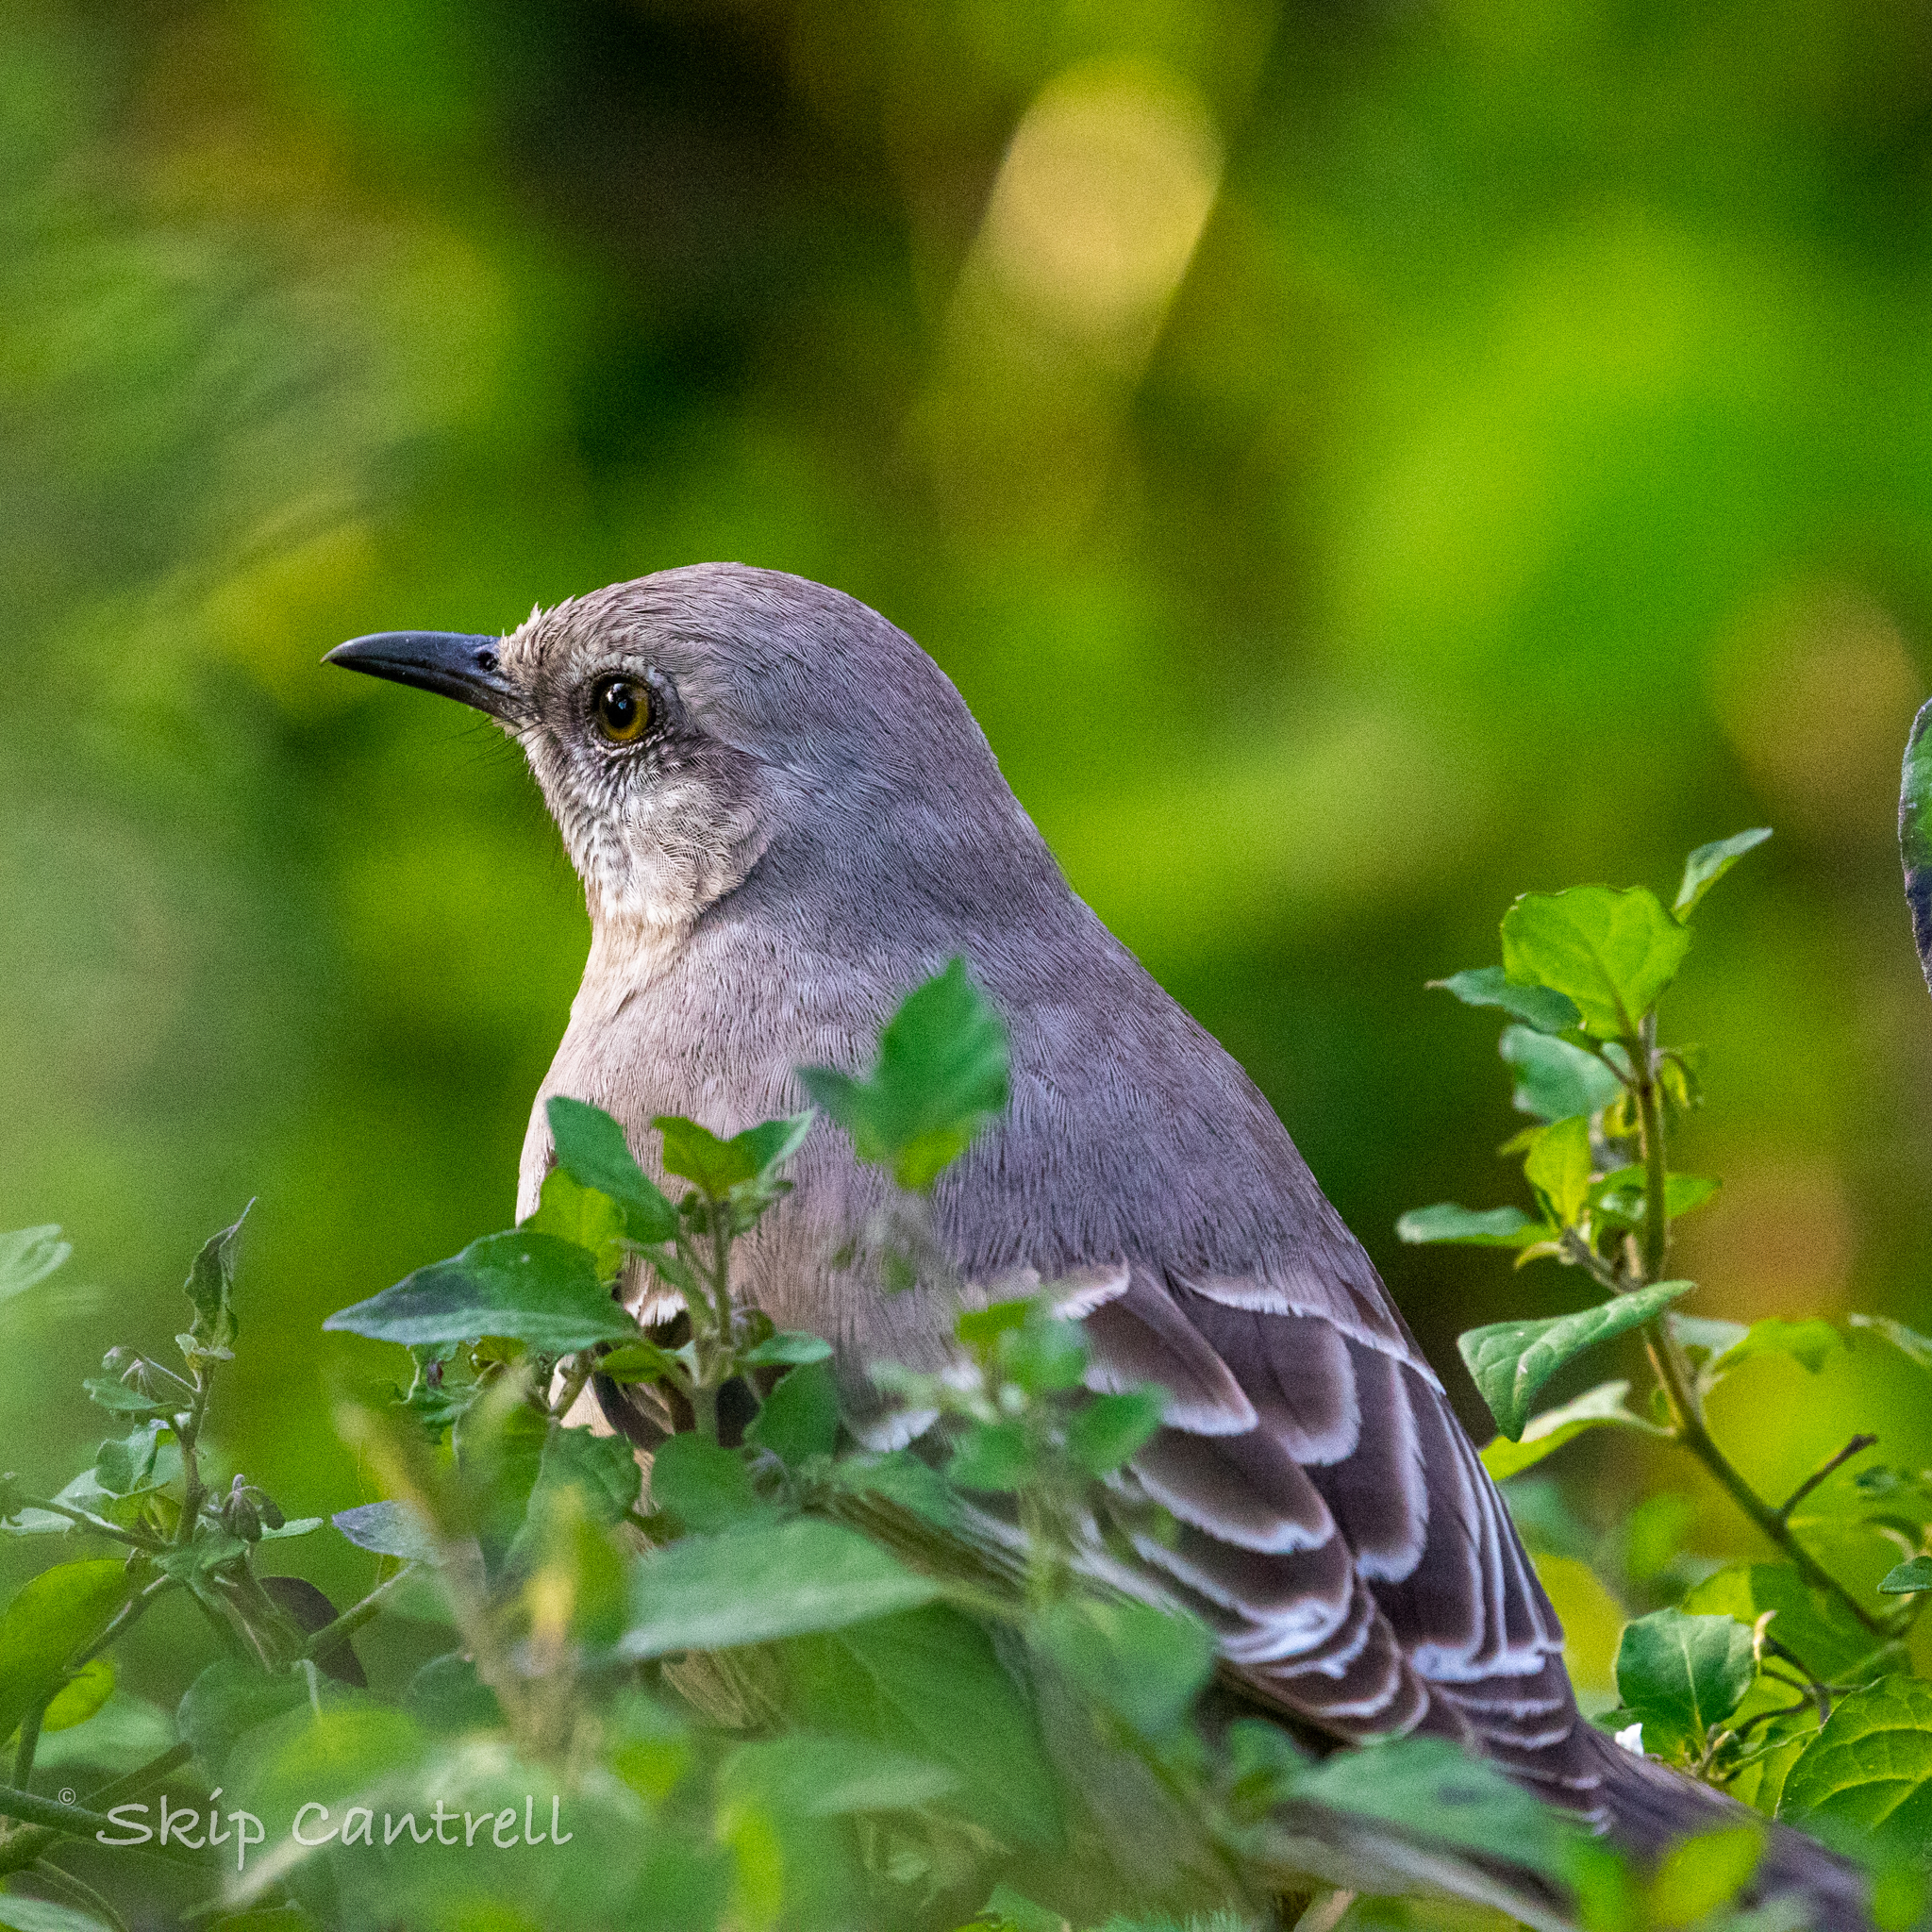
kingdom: Animalia
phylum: Chordata
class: Aves
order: Passeriformes
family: Mimidae
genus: Mimus
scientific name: Mimus polyglottos
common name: Northern mockingbird
